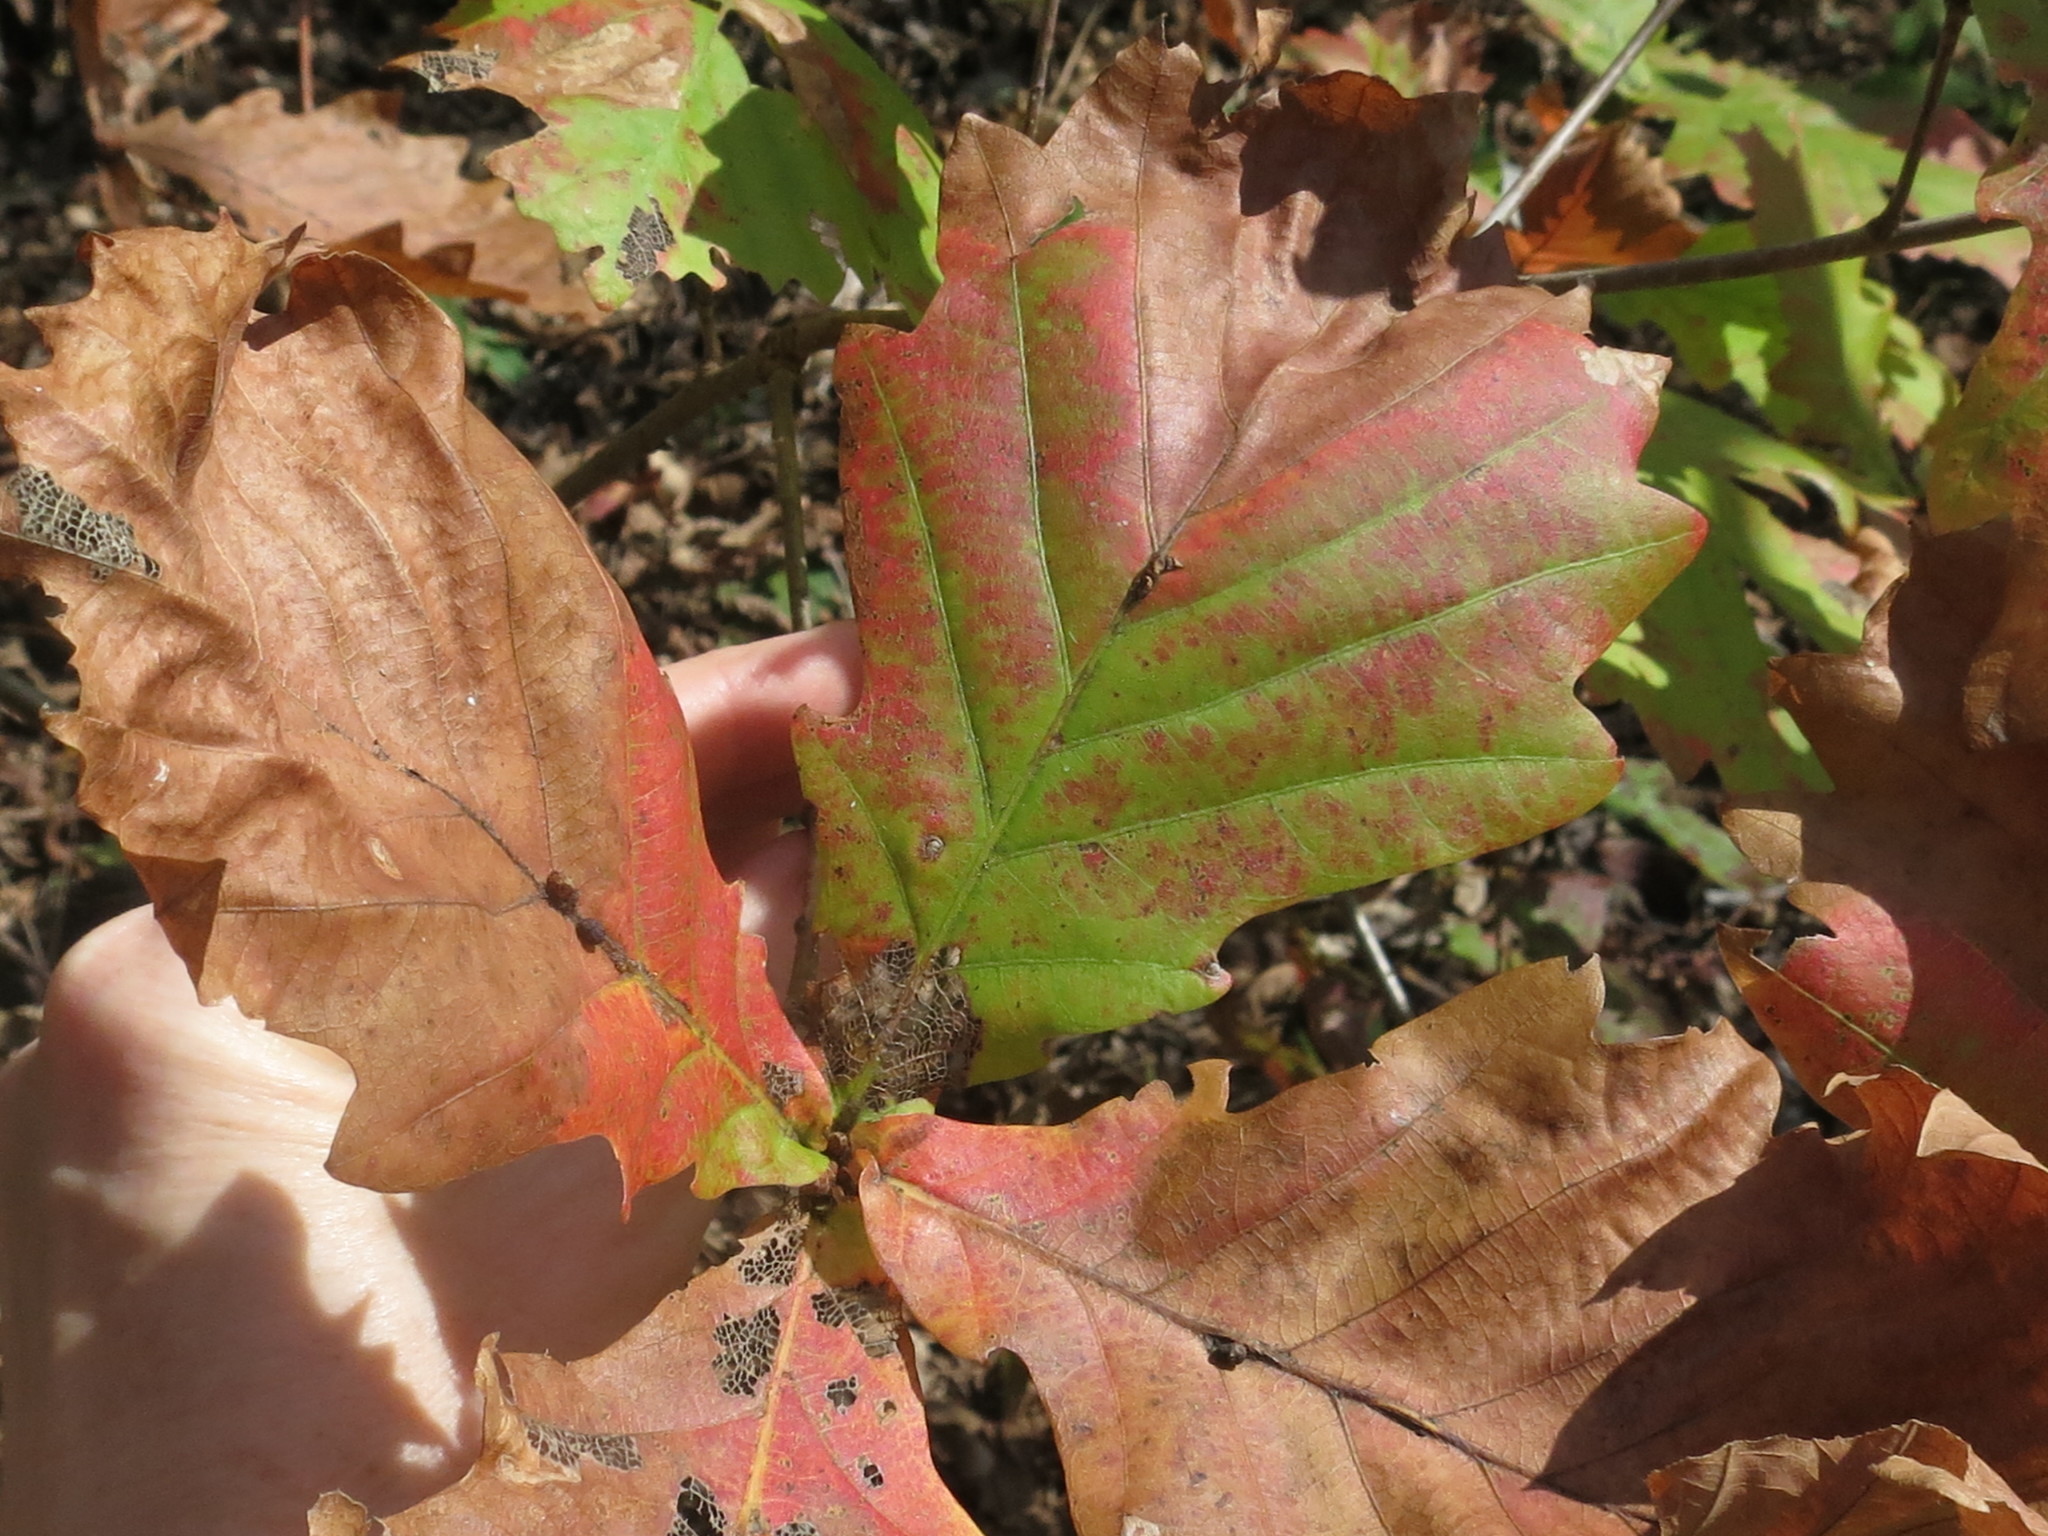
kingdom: Plantae
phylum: Tracheophyta
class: Magnoliopsida
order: Fagales
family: Fagaceae
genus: Quercus
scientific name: Quercus mongolica
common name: Mongolian oak
